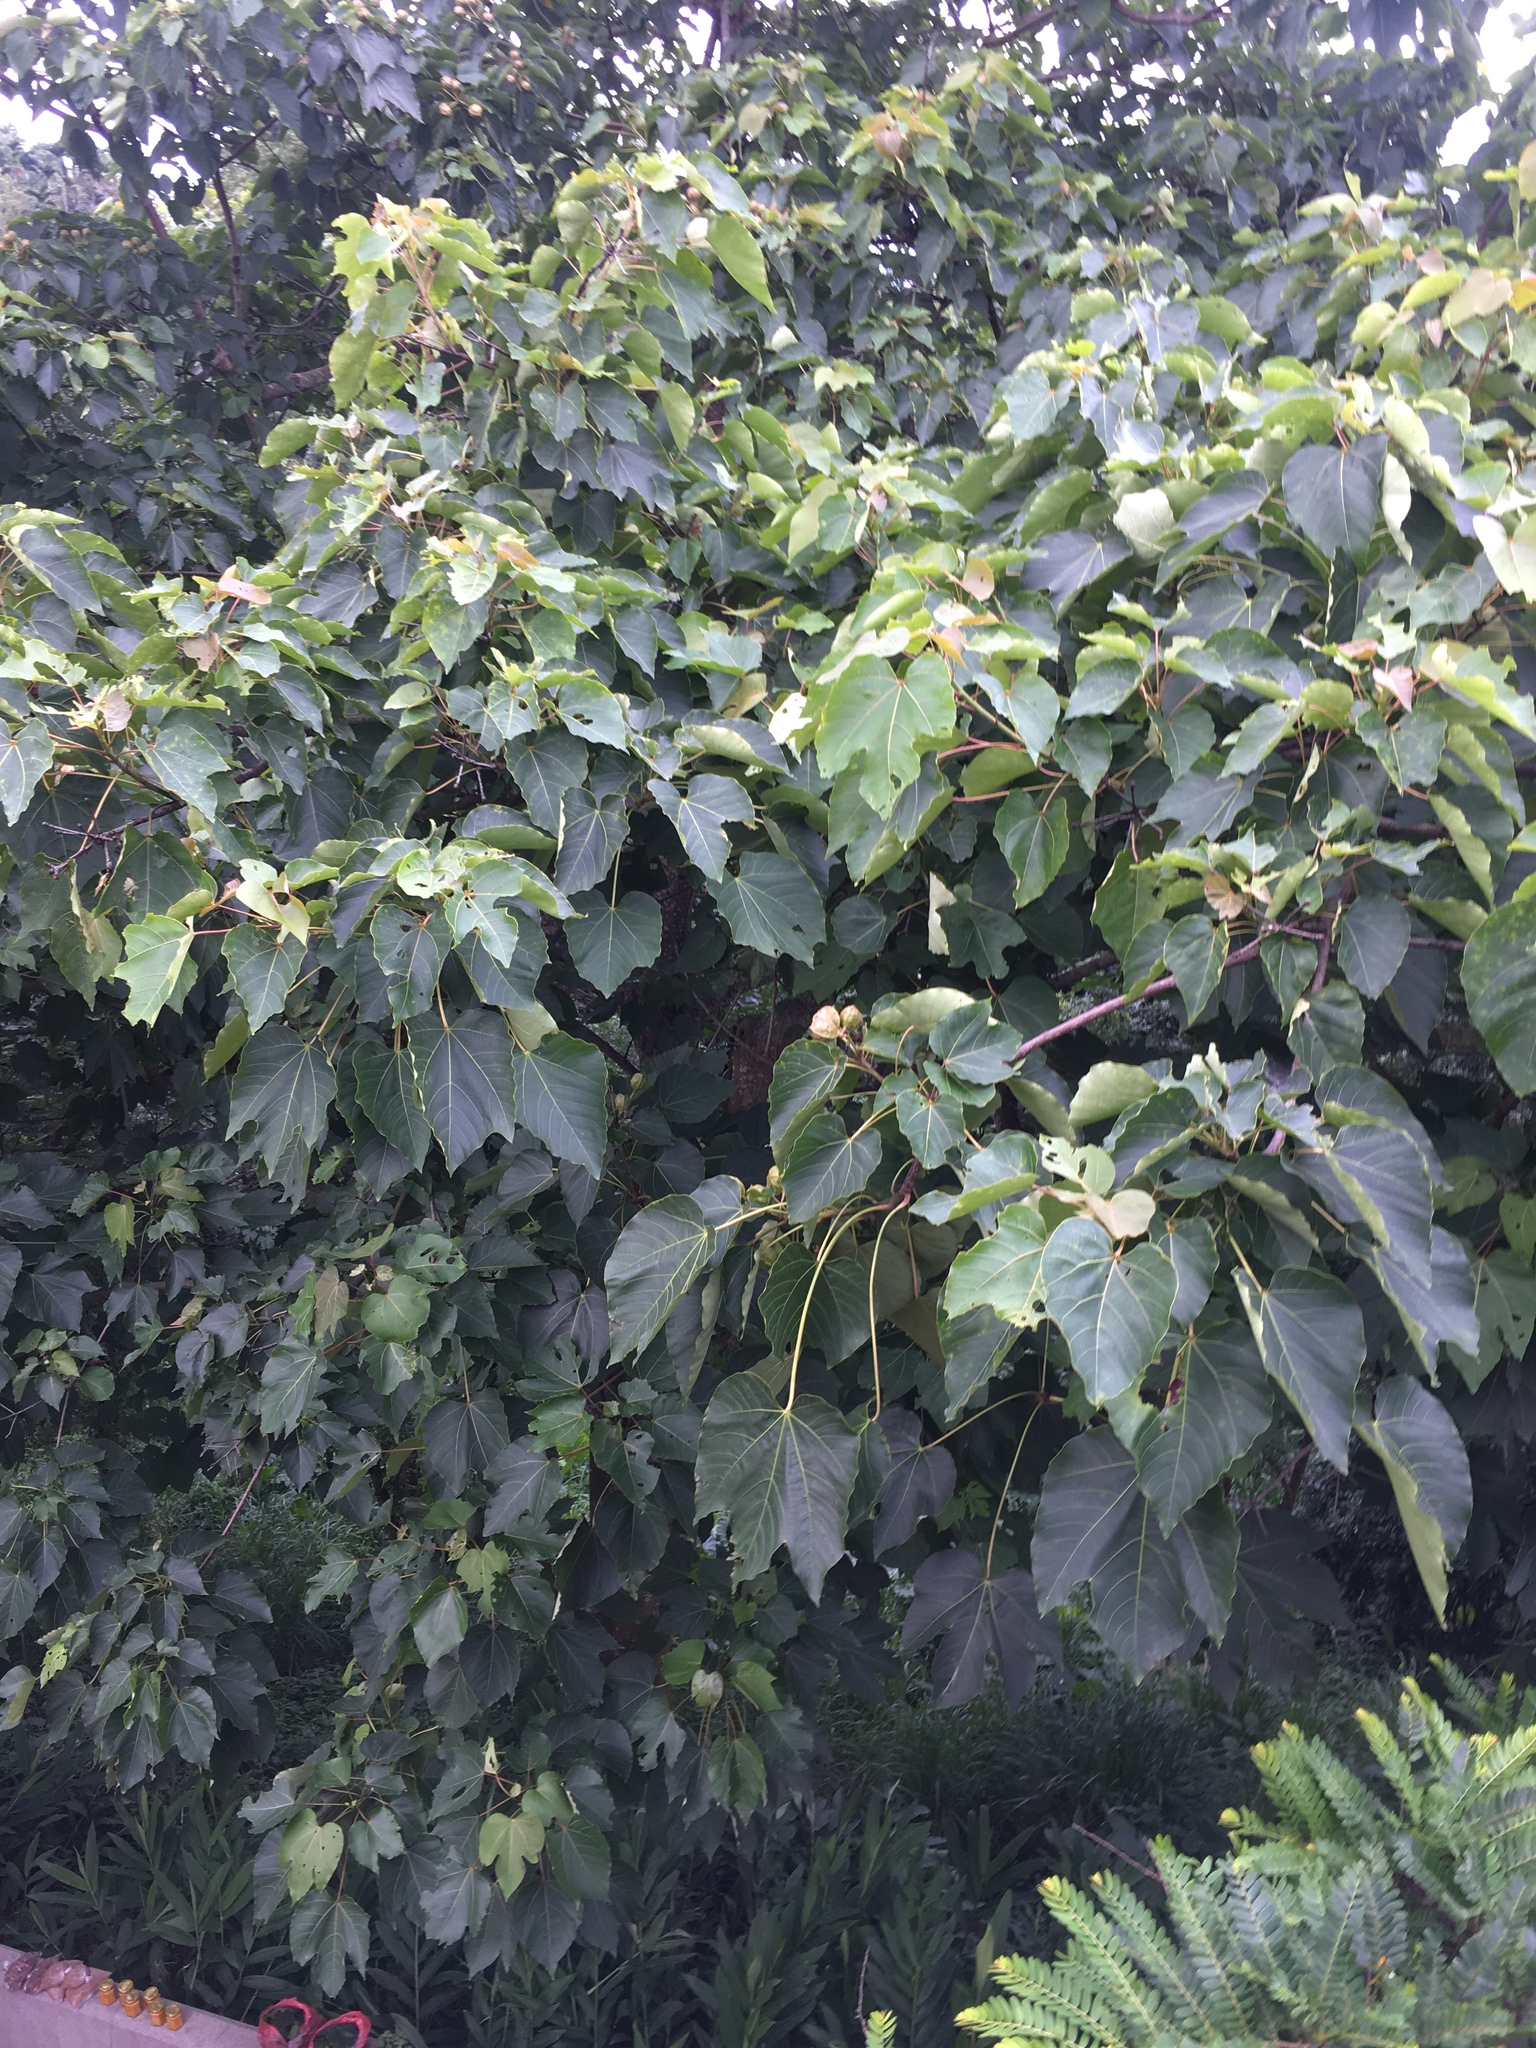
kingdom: Plantae
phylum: Tracheophyta
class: Magnoliopsida
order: Malpighiales
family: Euphorbiaceae
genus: Vernicia
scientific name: Vernicia montana
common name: Mu oil tree
